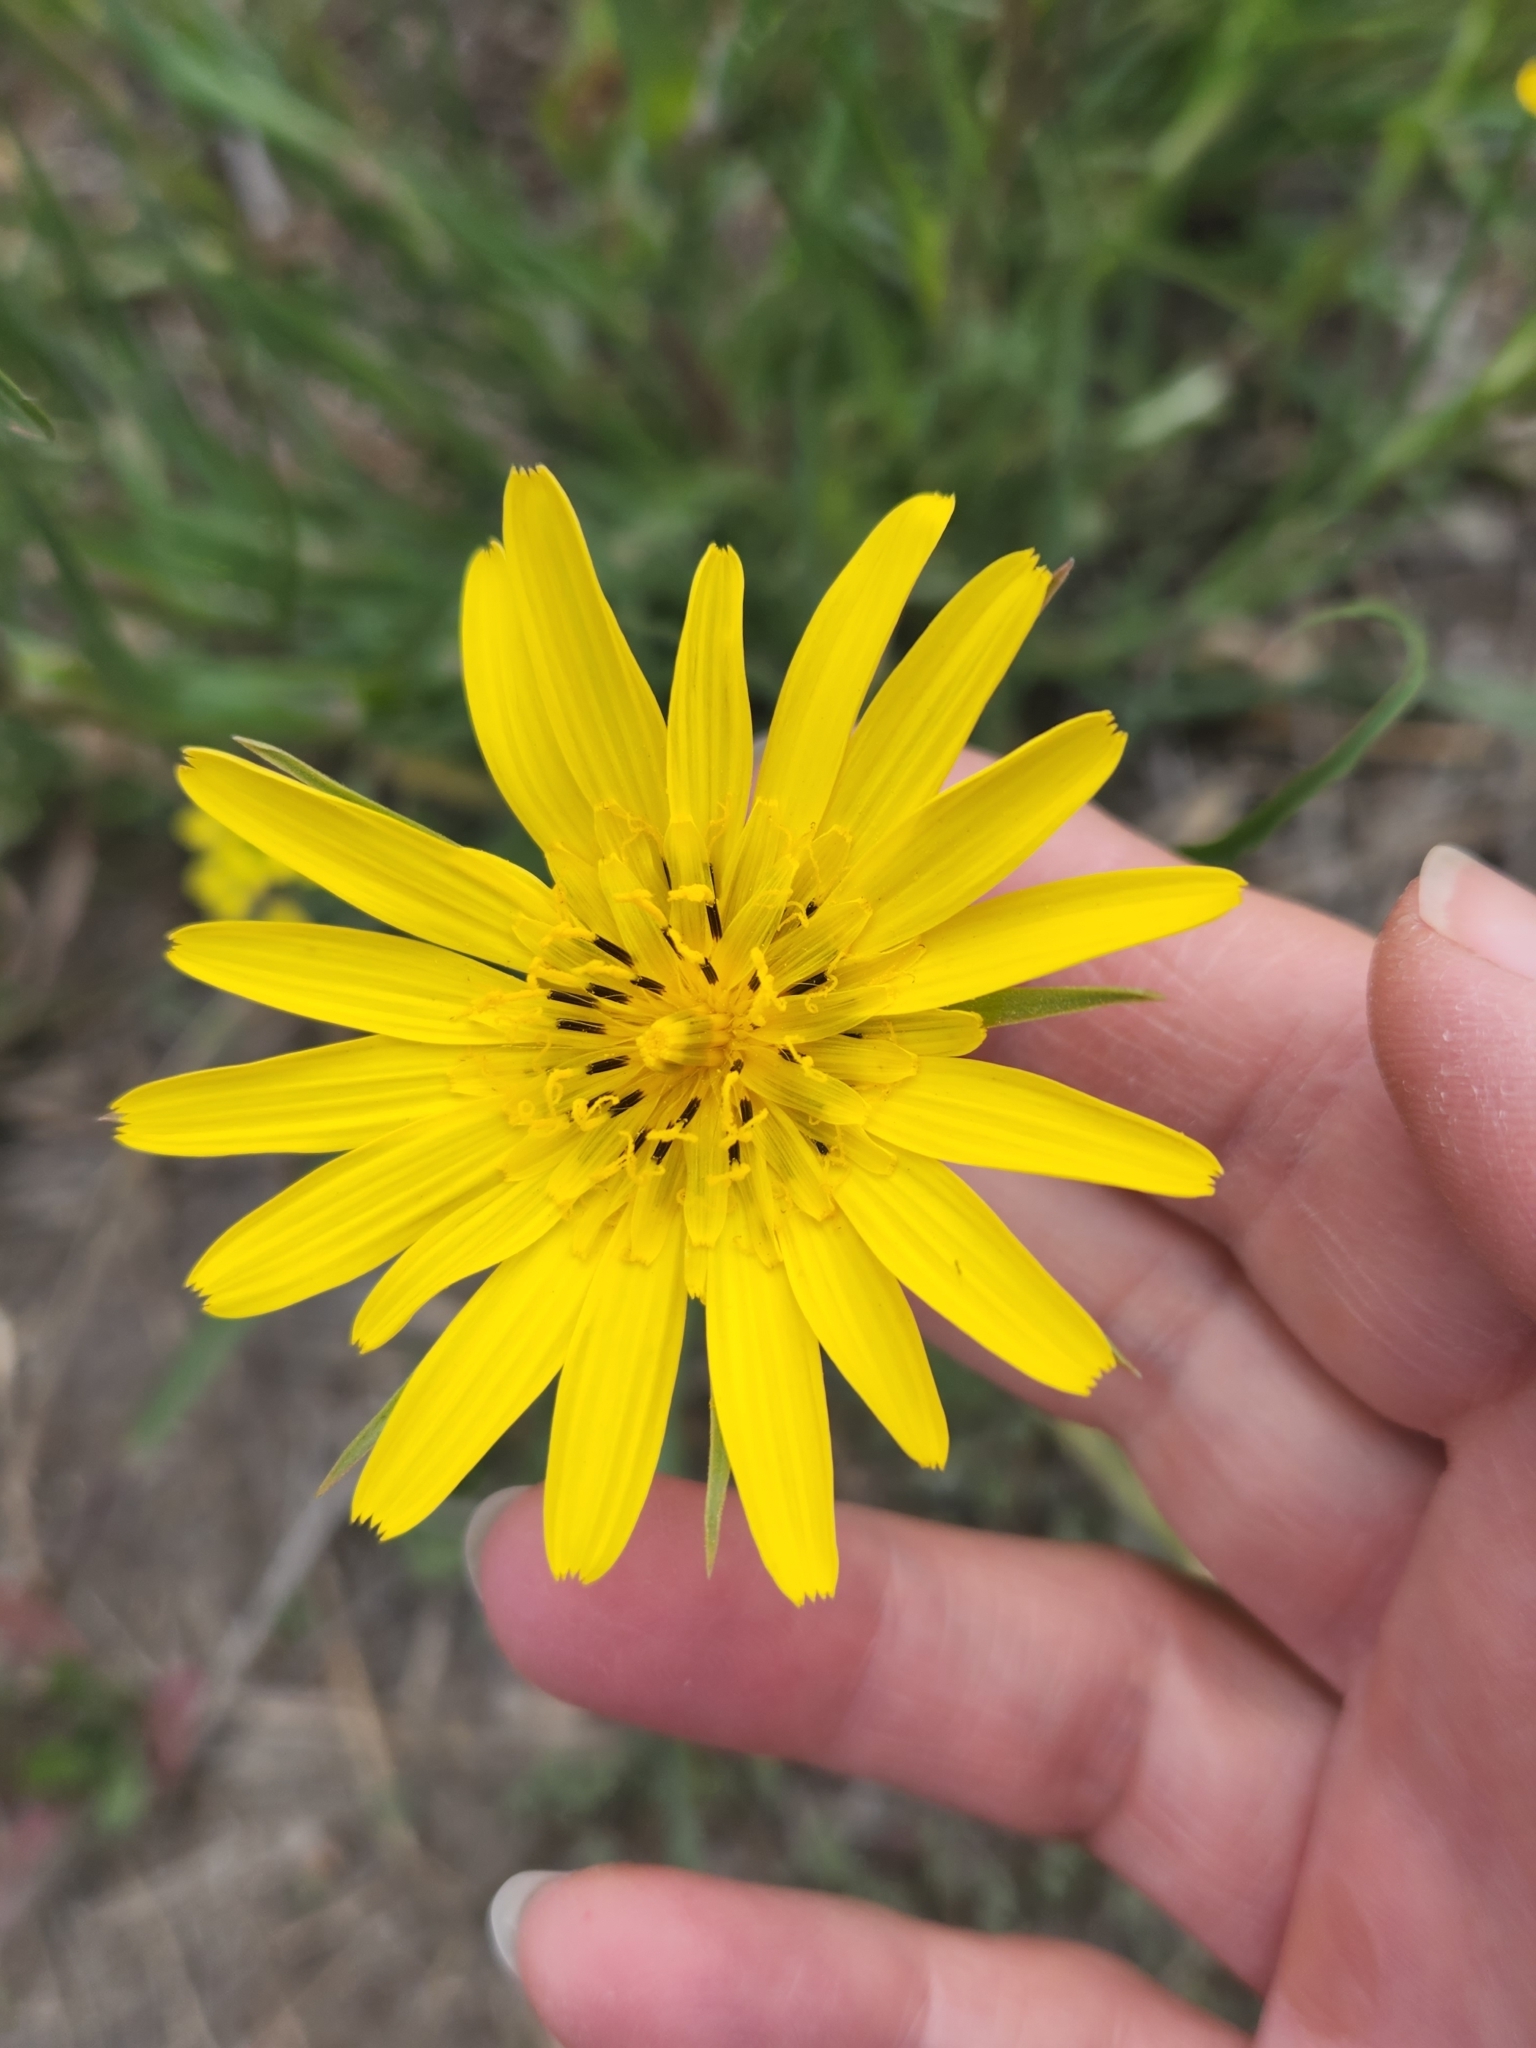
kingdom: Plantae
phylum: Tracheophyta
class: Magnoliopsida
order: Asterales
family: Asteraceae
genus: Tragopogon
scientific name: Tragopogon pratensis
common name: Goat's-beard
